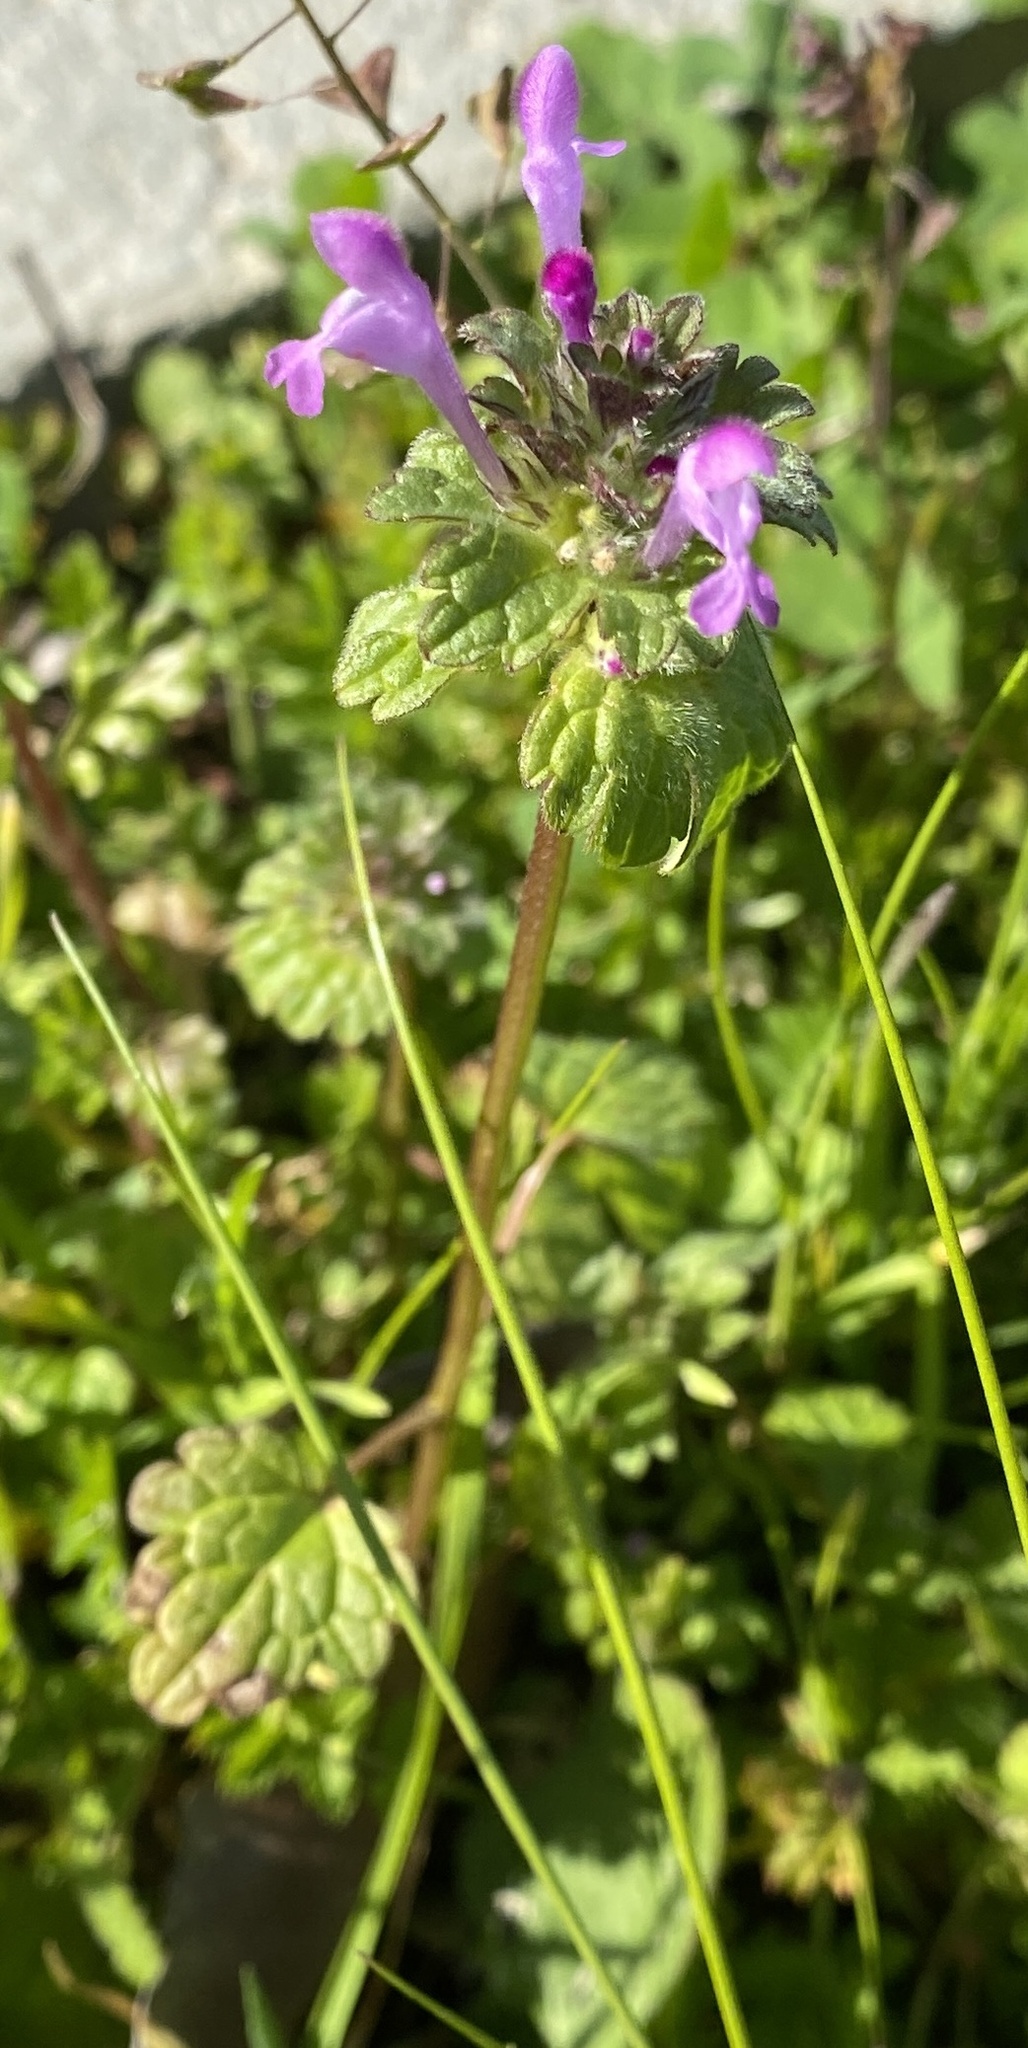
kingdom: Plantae
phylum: Tracheophyta
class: Magnoliopsida
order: Lamiales
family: Lamiaceae
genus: Lamium
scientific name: Lamium amplexicaule
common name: Henbit dead-nettle
